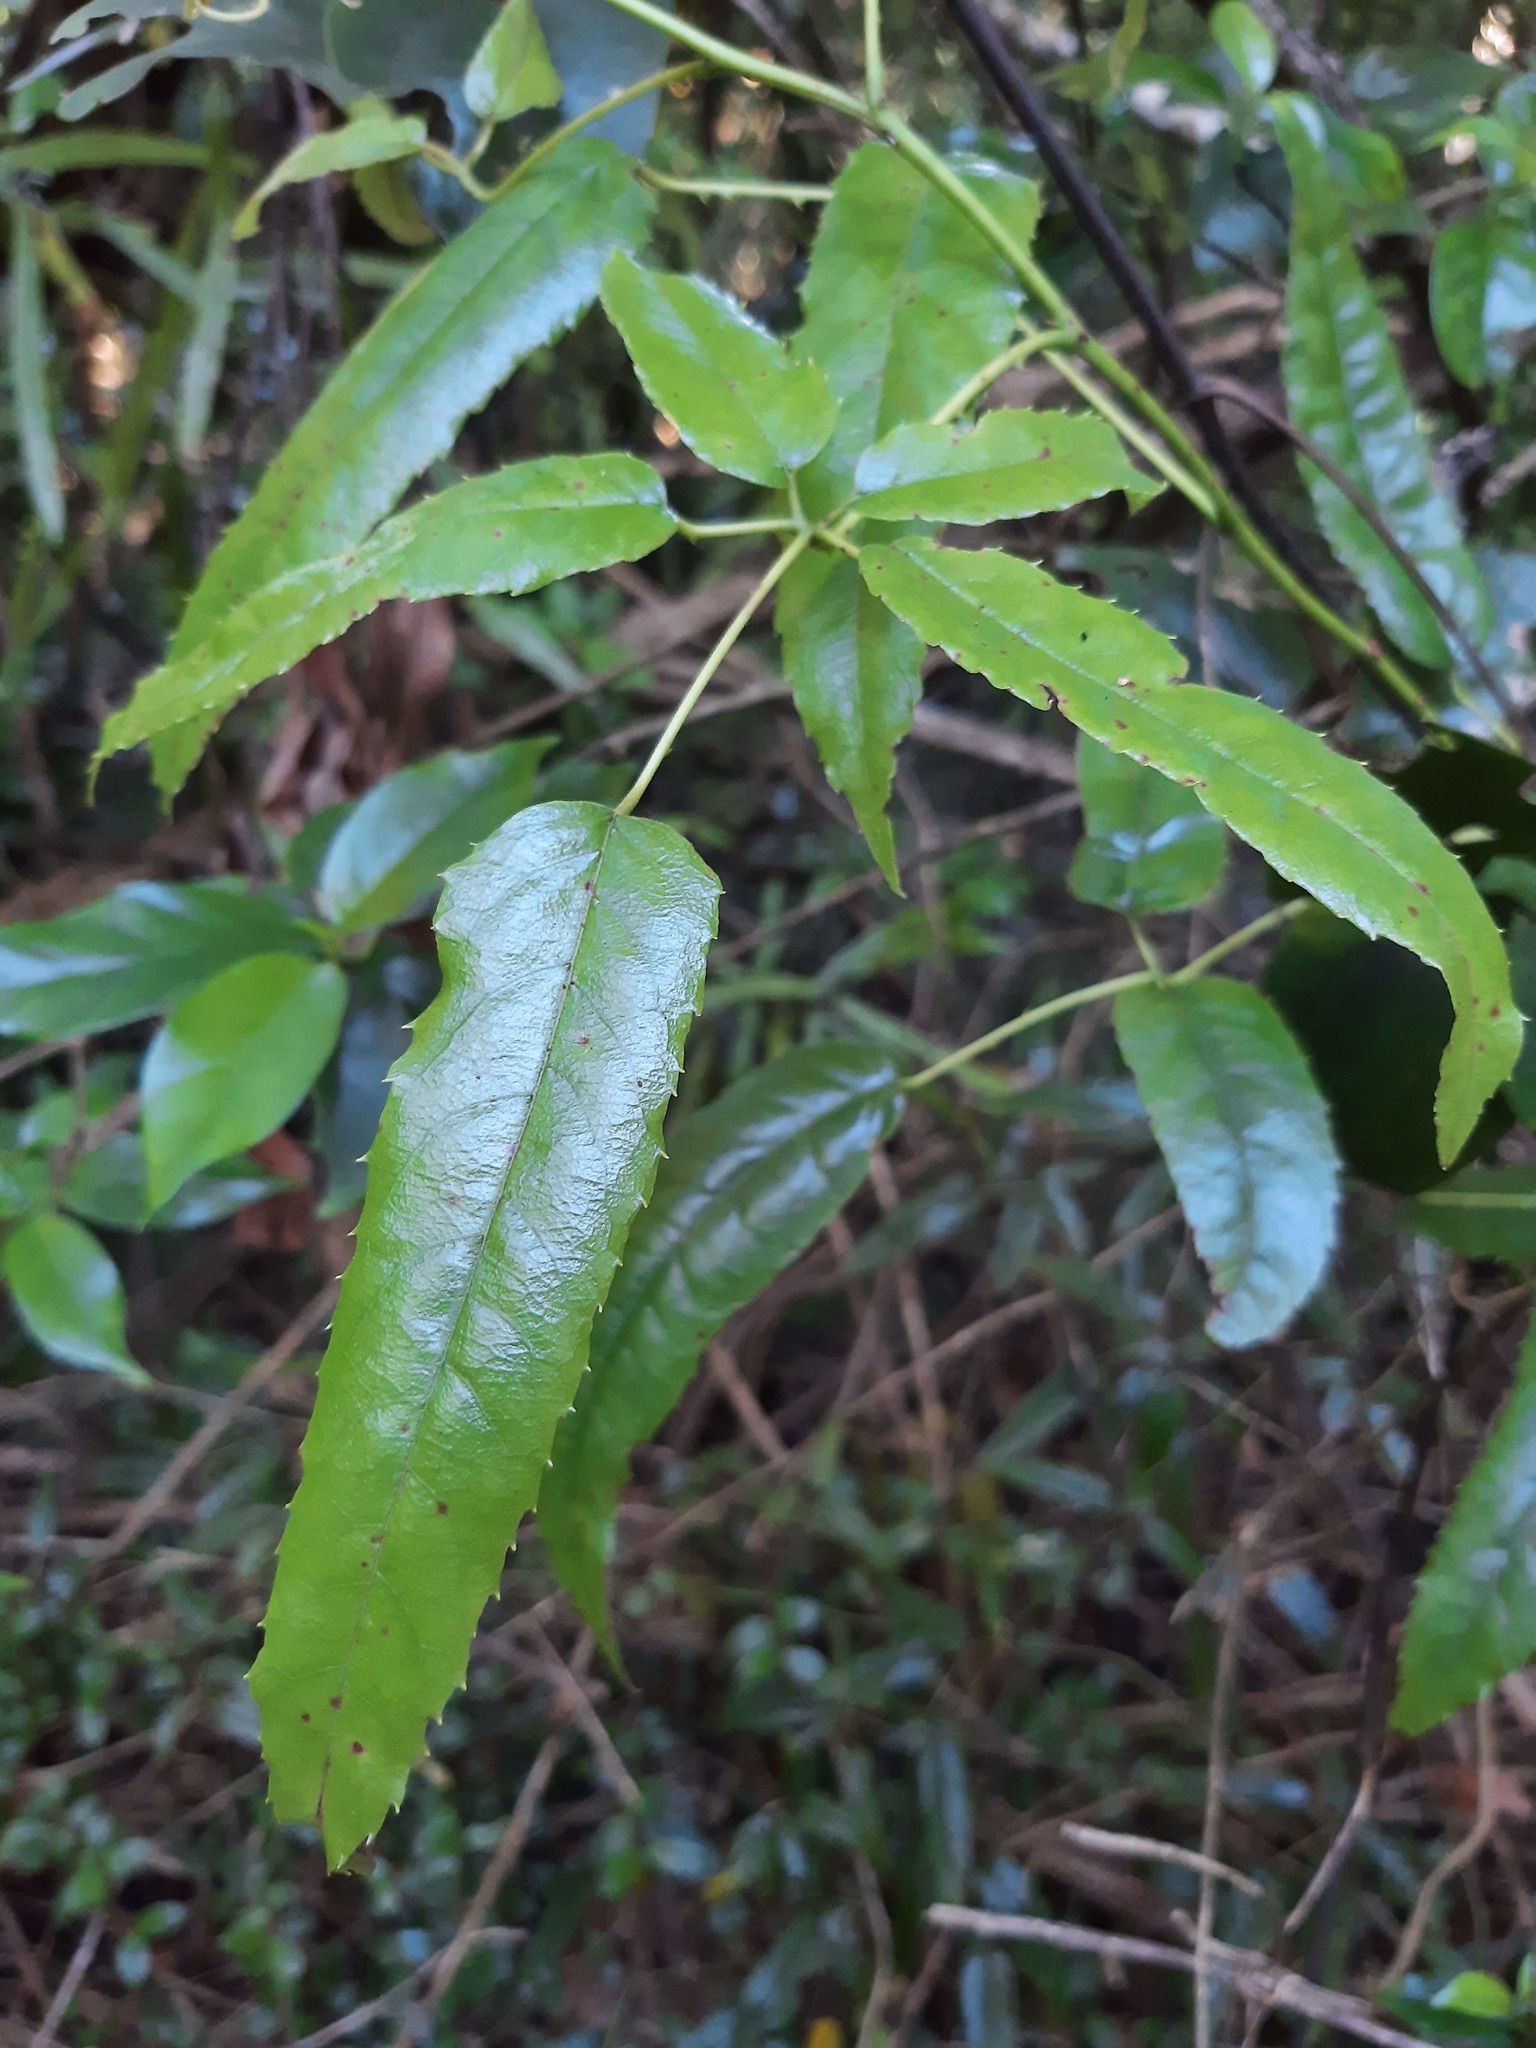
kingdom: Plantae
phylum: Tracheophyta
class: Magnoliopsida
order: Rosales
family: Rosaceae
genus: Rubus
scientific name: Rubus cissoides
